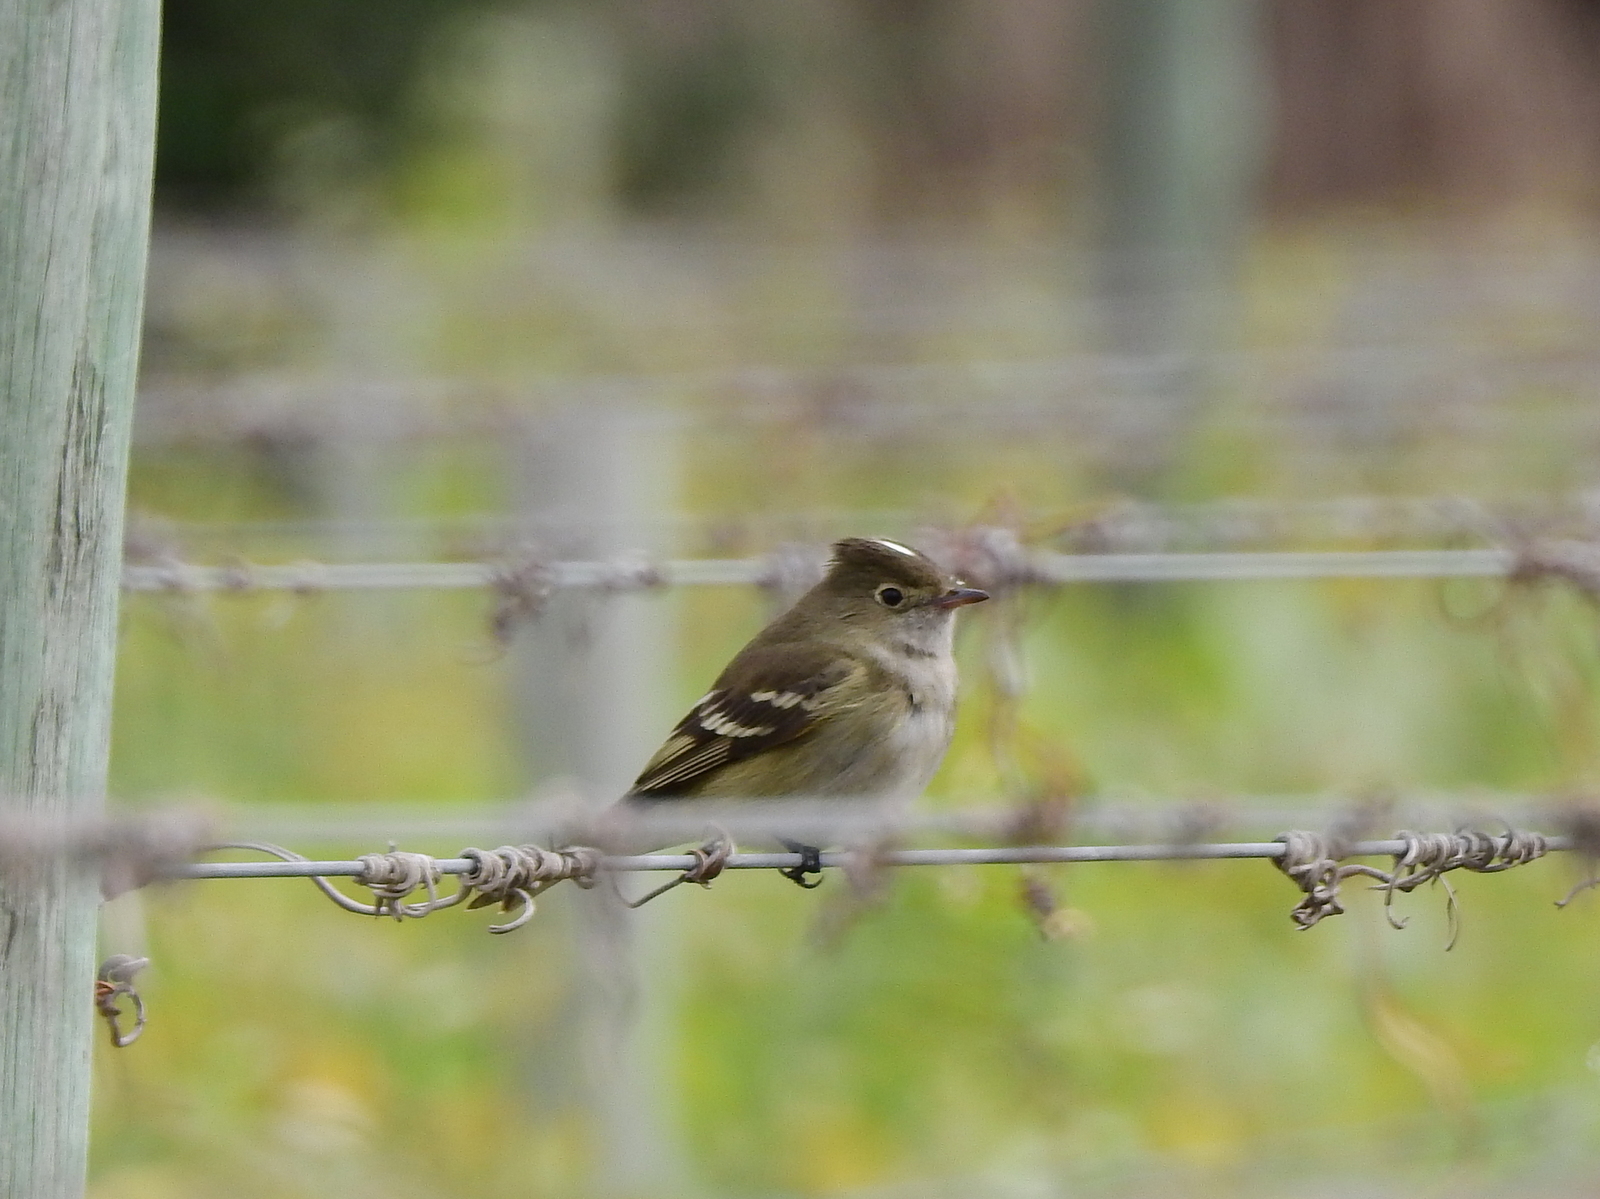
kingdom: Animalia
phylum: Chordata
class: Aves
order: Passeriformes
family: Tyrannidae
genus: Elaenia
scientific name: Elaenia albiceps
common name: White-crested elaenia
